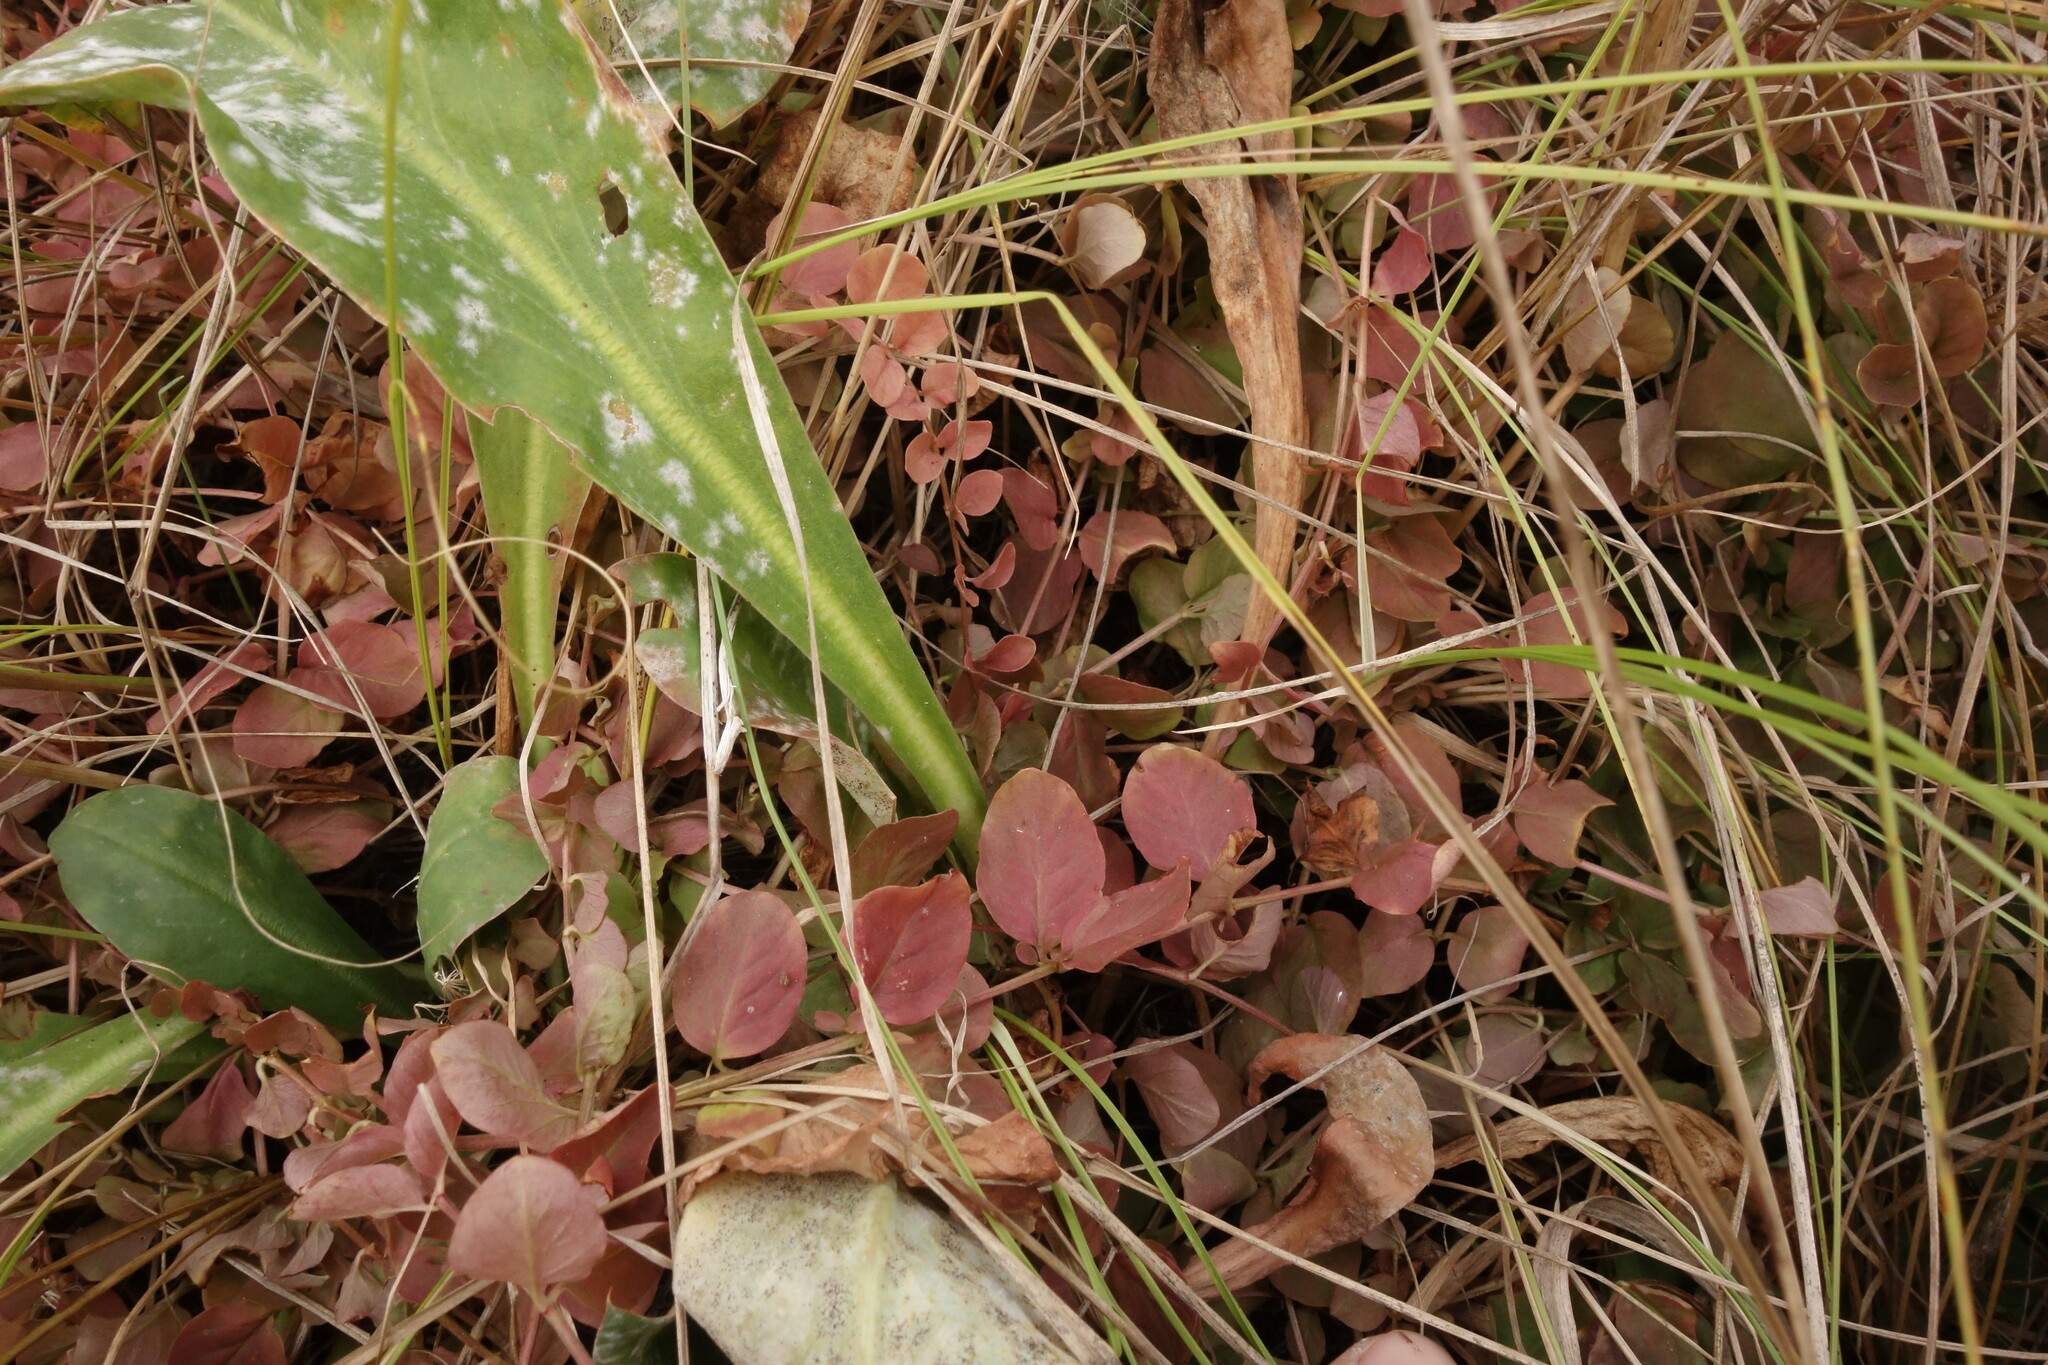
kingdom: Plantae
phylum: Tracheophyta
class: Magnoliopsida
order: Ericales
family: Primulaceae
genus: Lysimachia
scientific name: Lysimachia nummularia
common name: Moneywort
